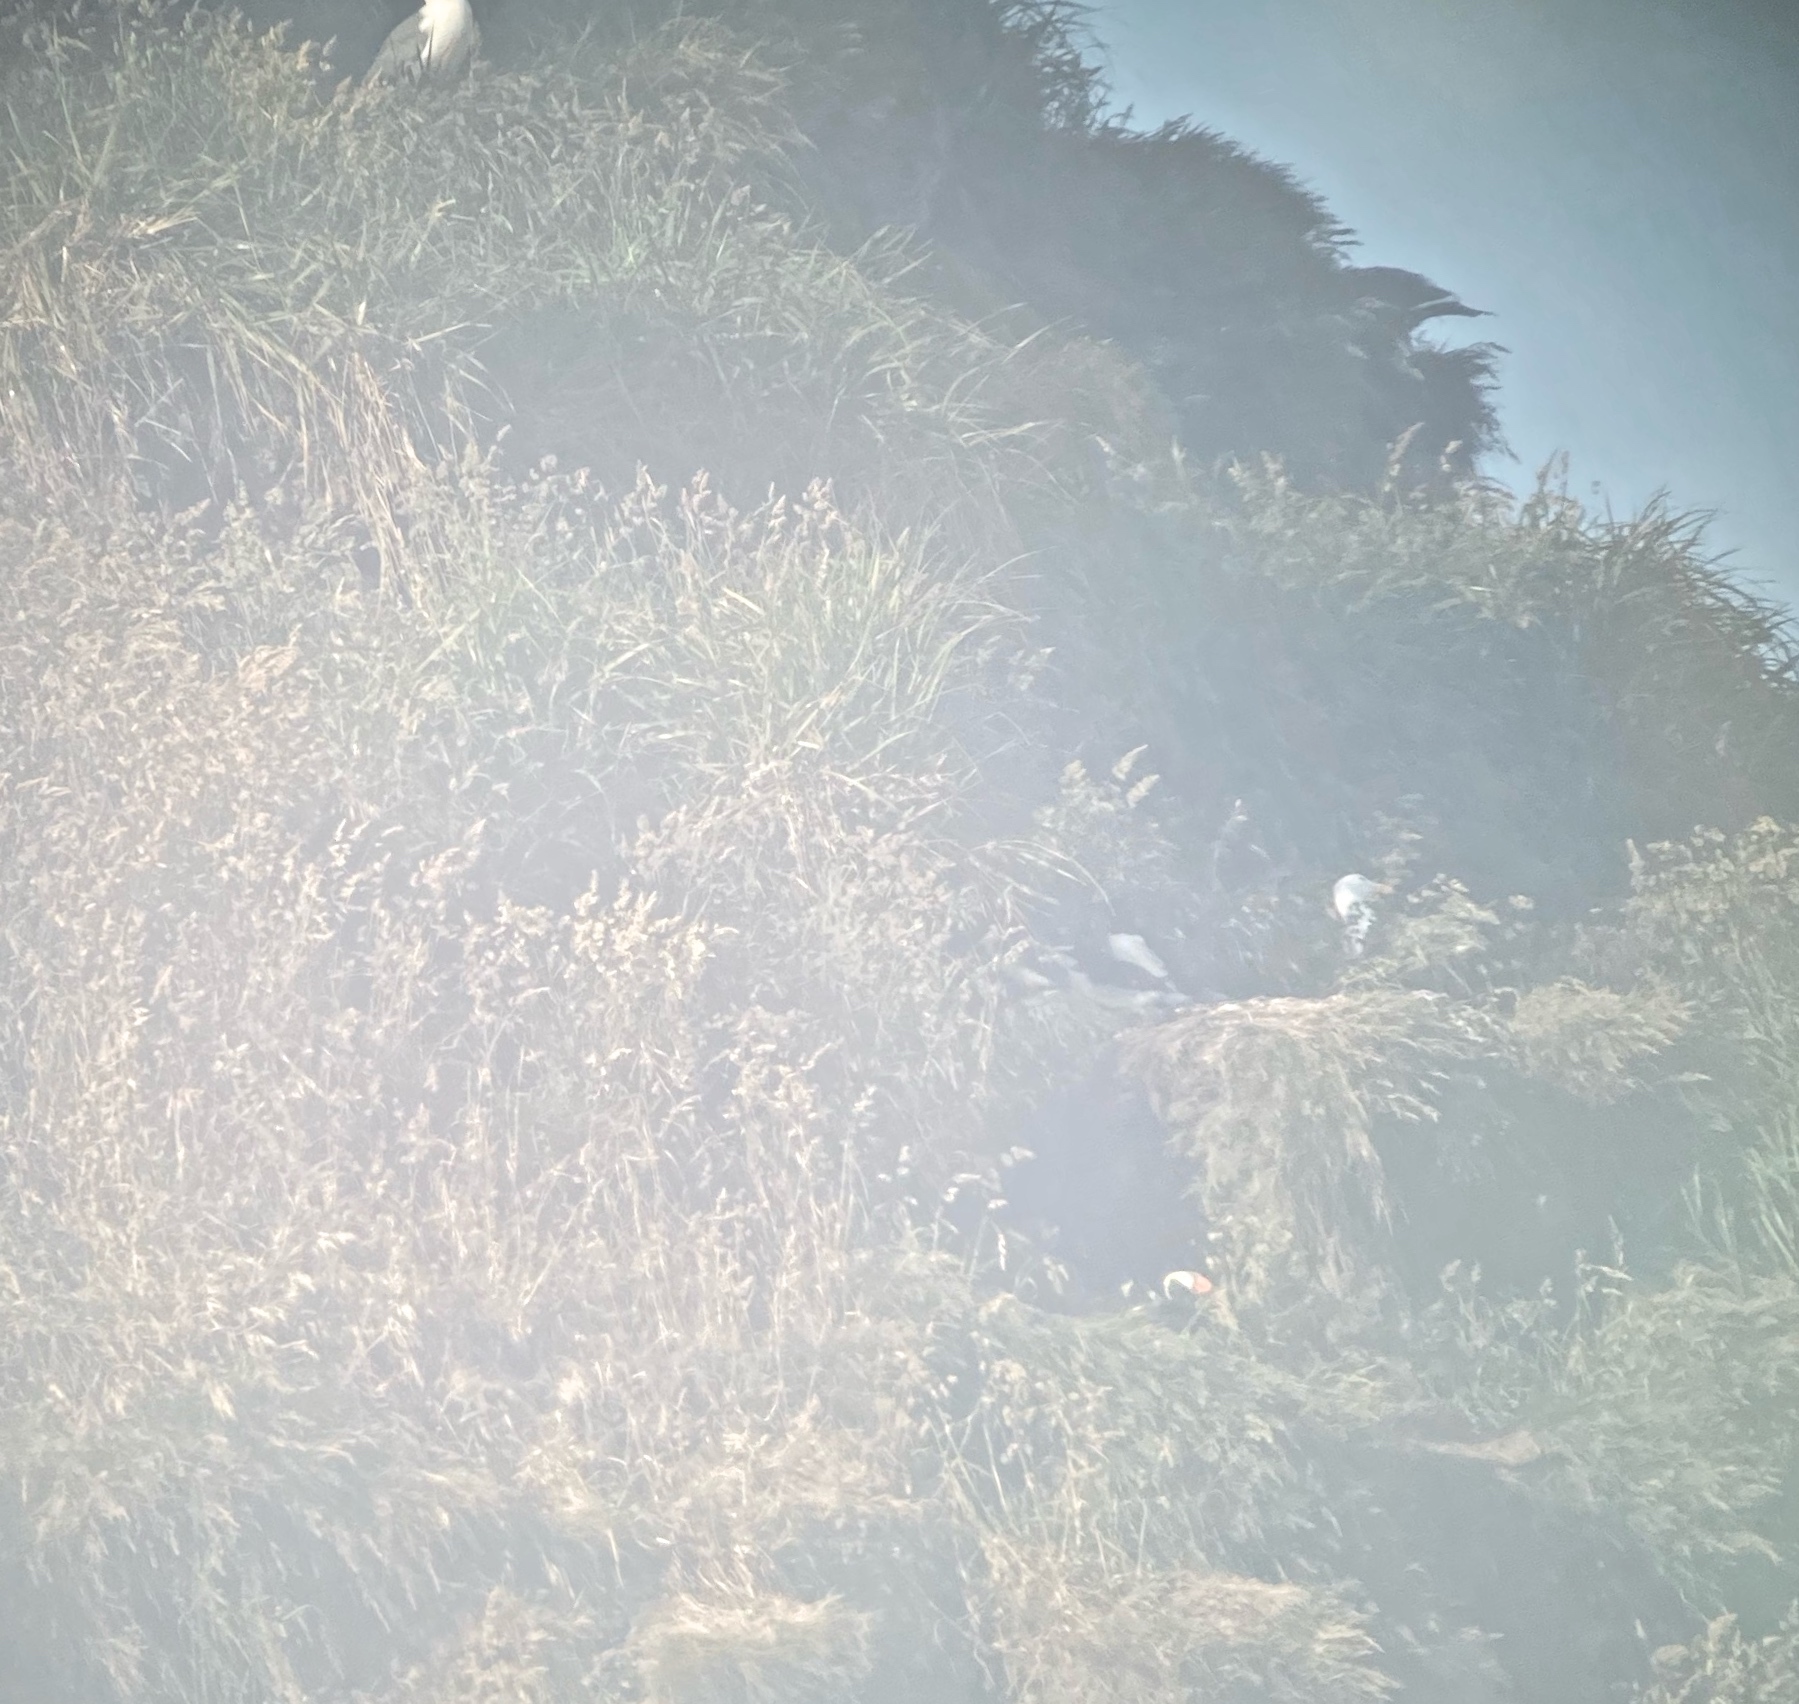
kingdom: Animalia
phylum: Chordata
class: Aves
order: Charadriiformes
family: Alcidae
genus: Fratercula
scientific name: Fratercula cirrhata
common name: Tufted puffin
